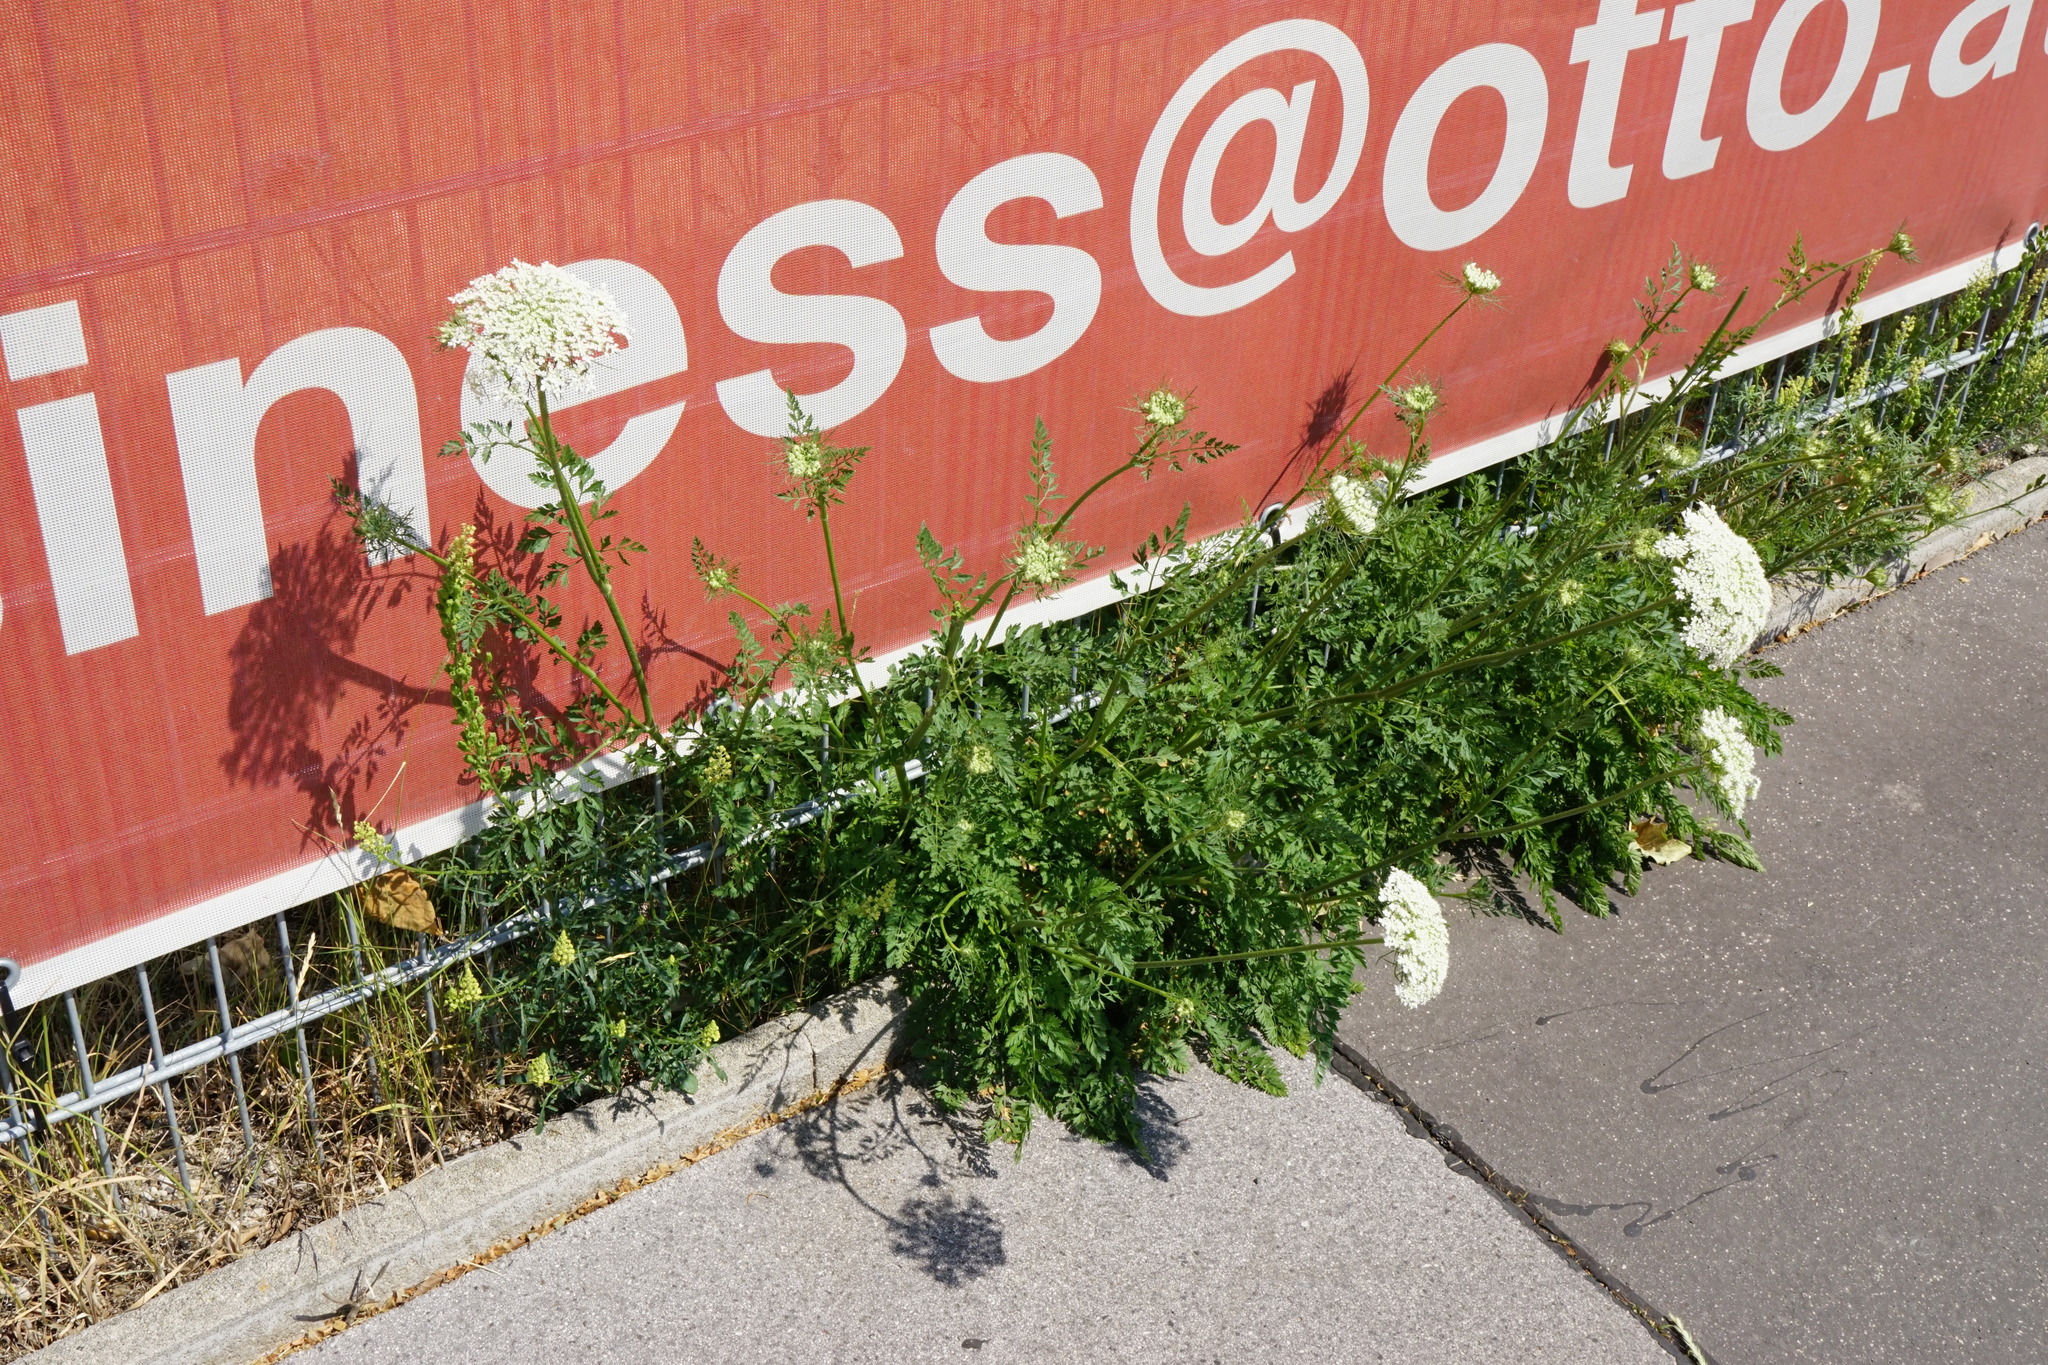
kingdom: Plantae
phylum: Tracheophyta
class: Magnoliopsida
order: Apiales
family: Apiaceae
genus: Daucus
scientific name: Daucus carota
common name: Wild carrot
